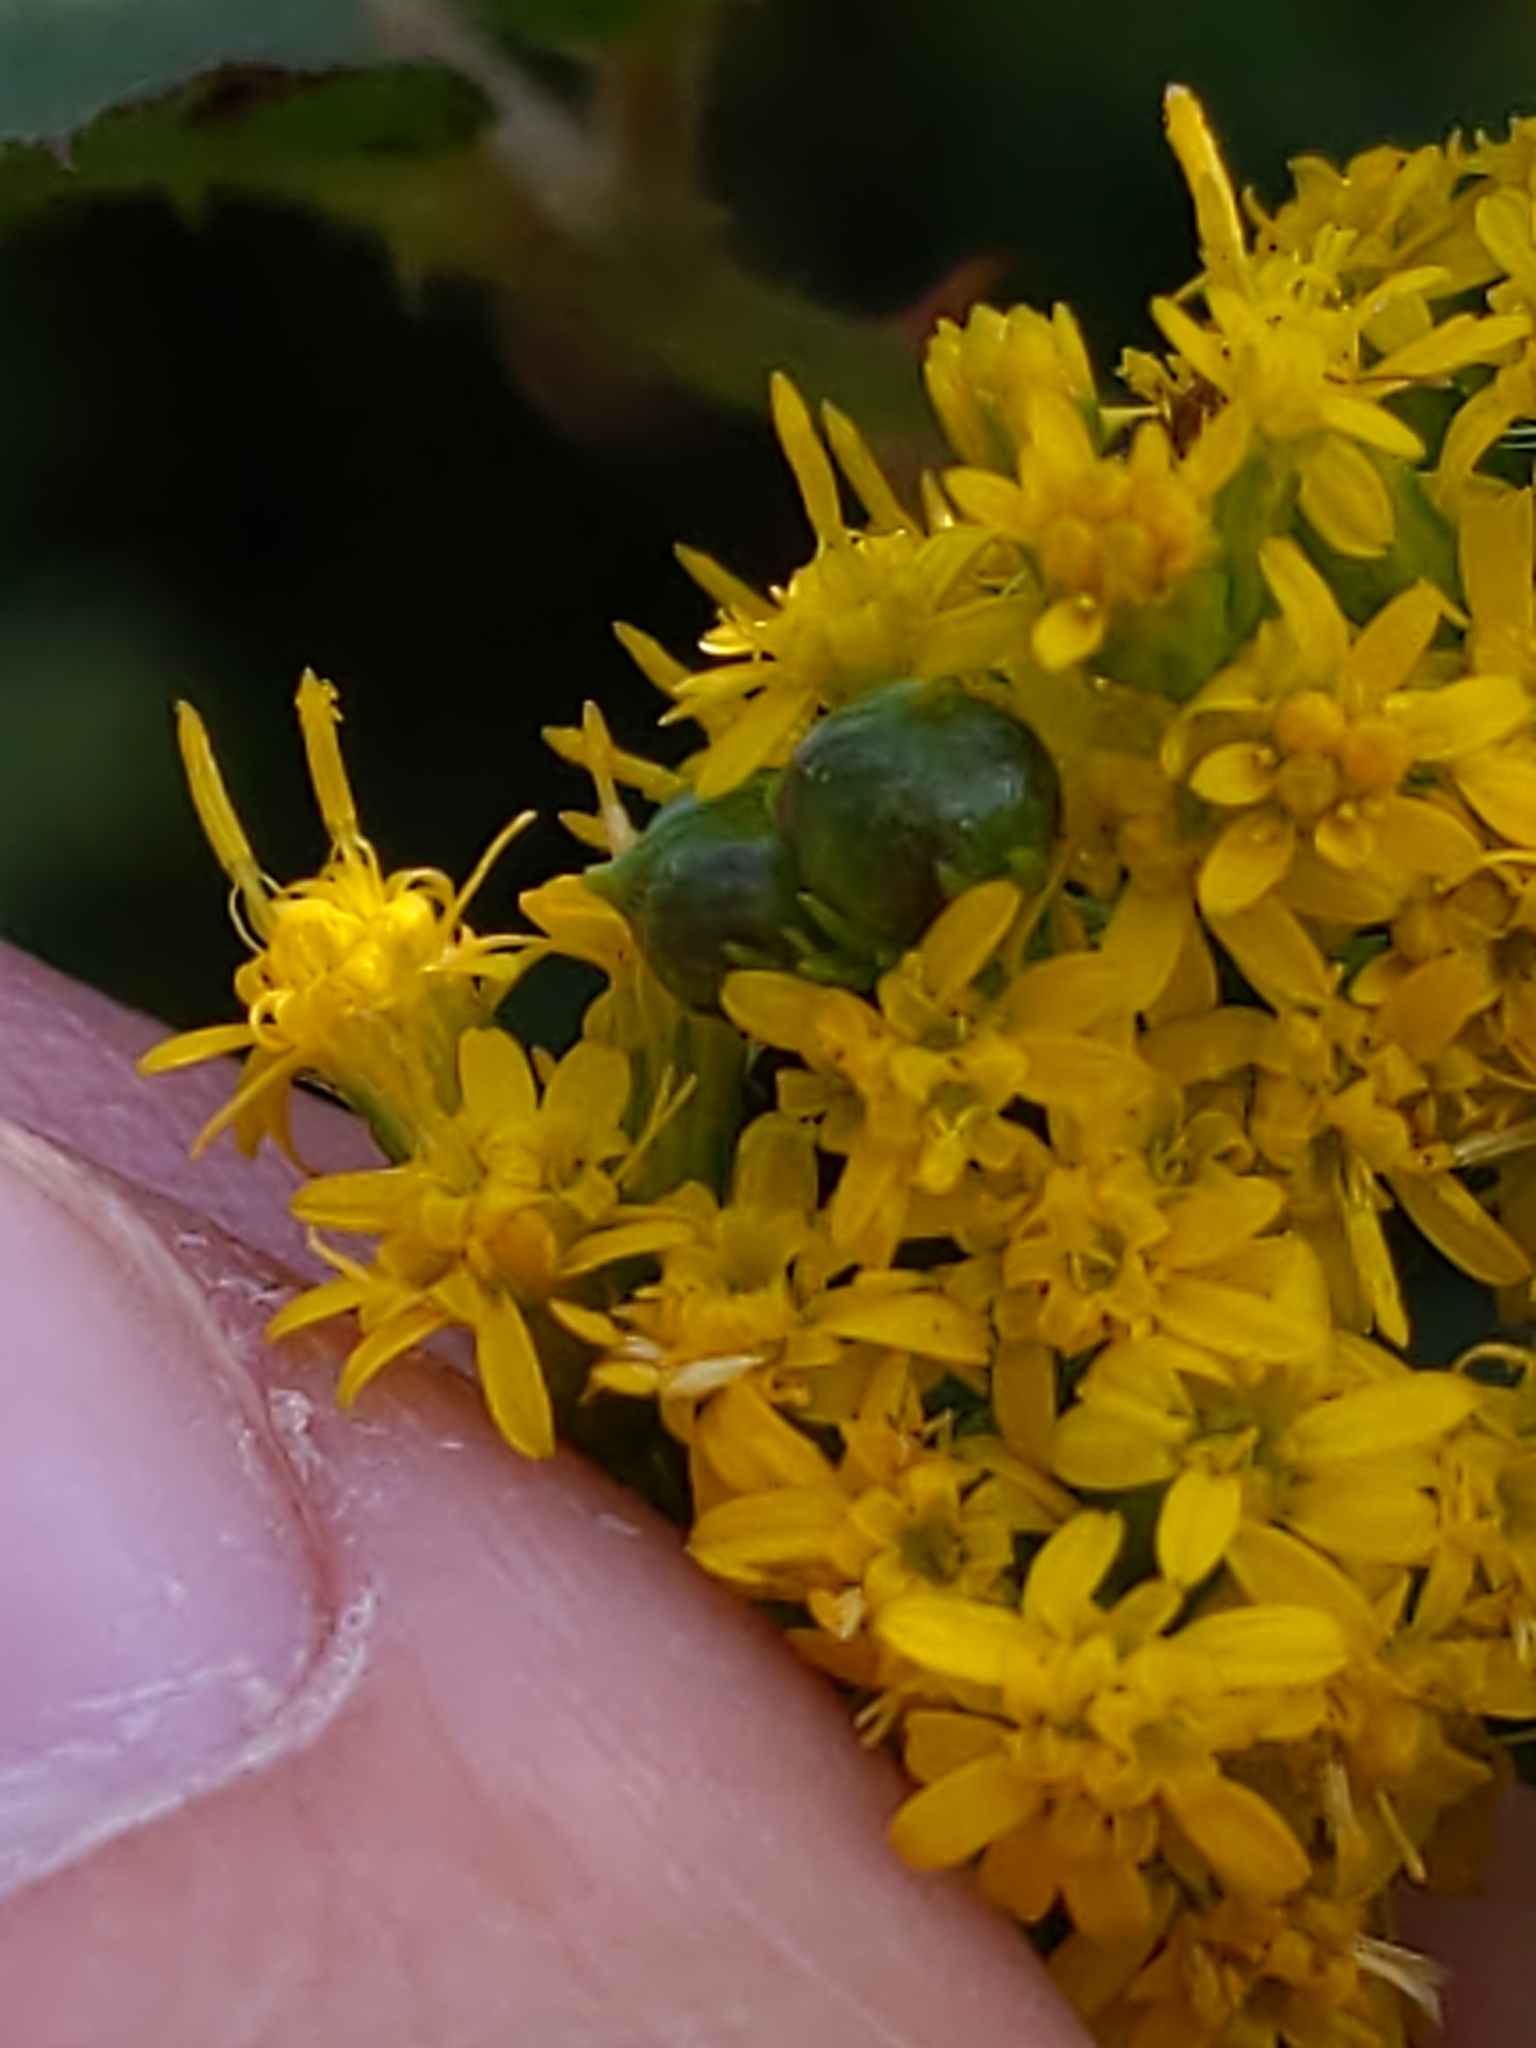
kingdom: Animalia
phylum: Arthropoda
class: Insecta
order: Diptera
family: Cecidomyiidae
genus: Schizomyia
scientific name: Schizomyia racemicola
